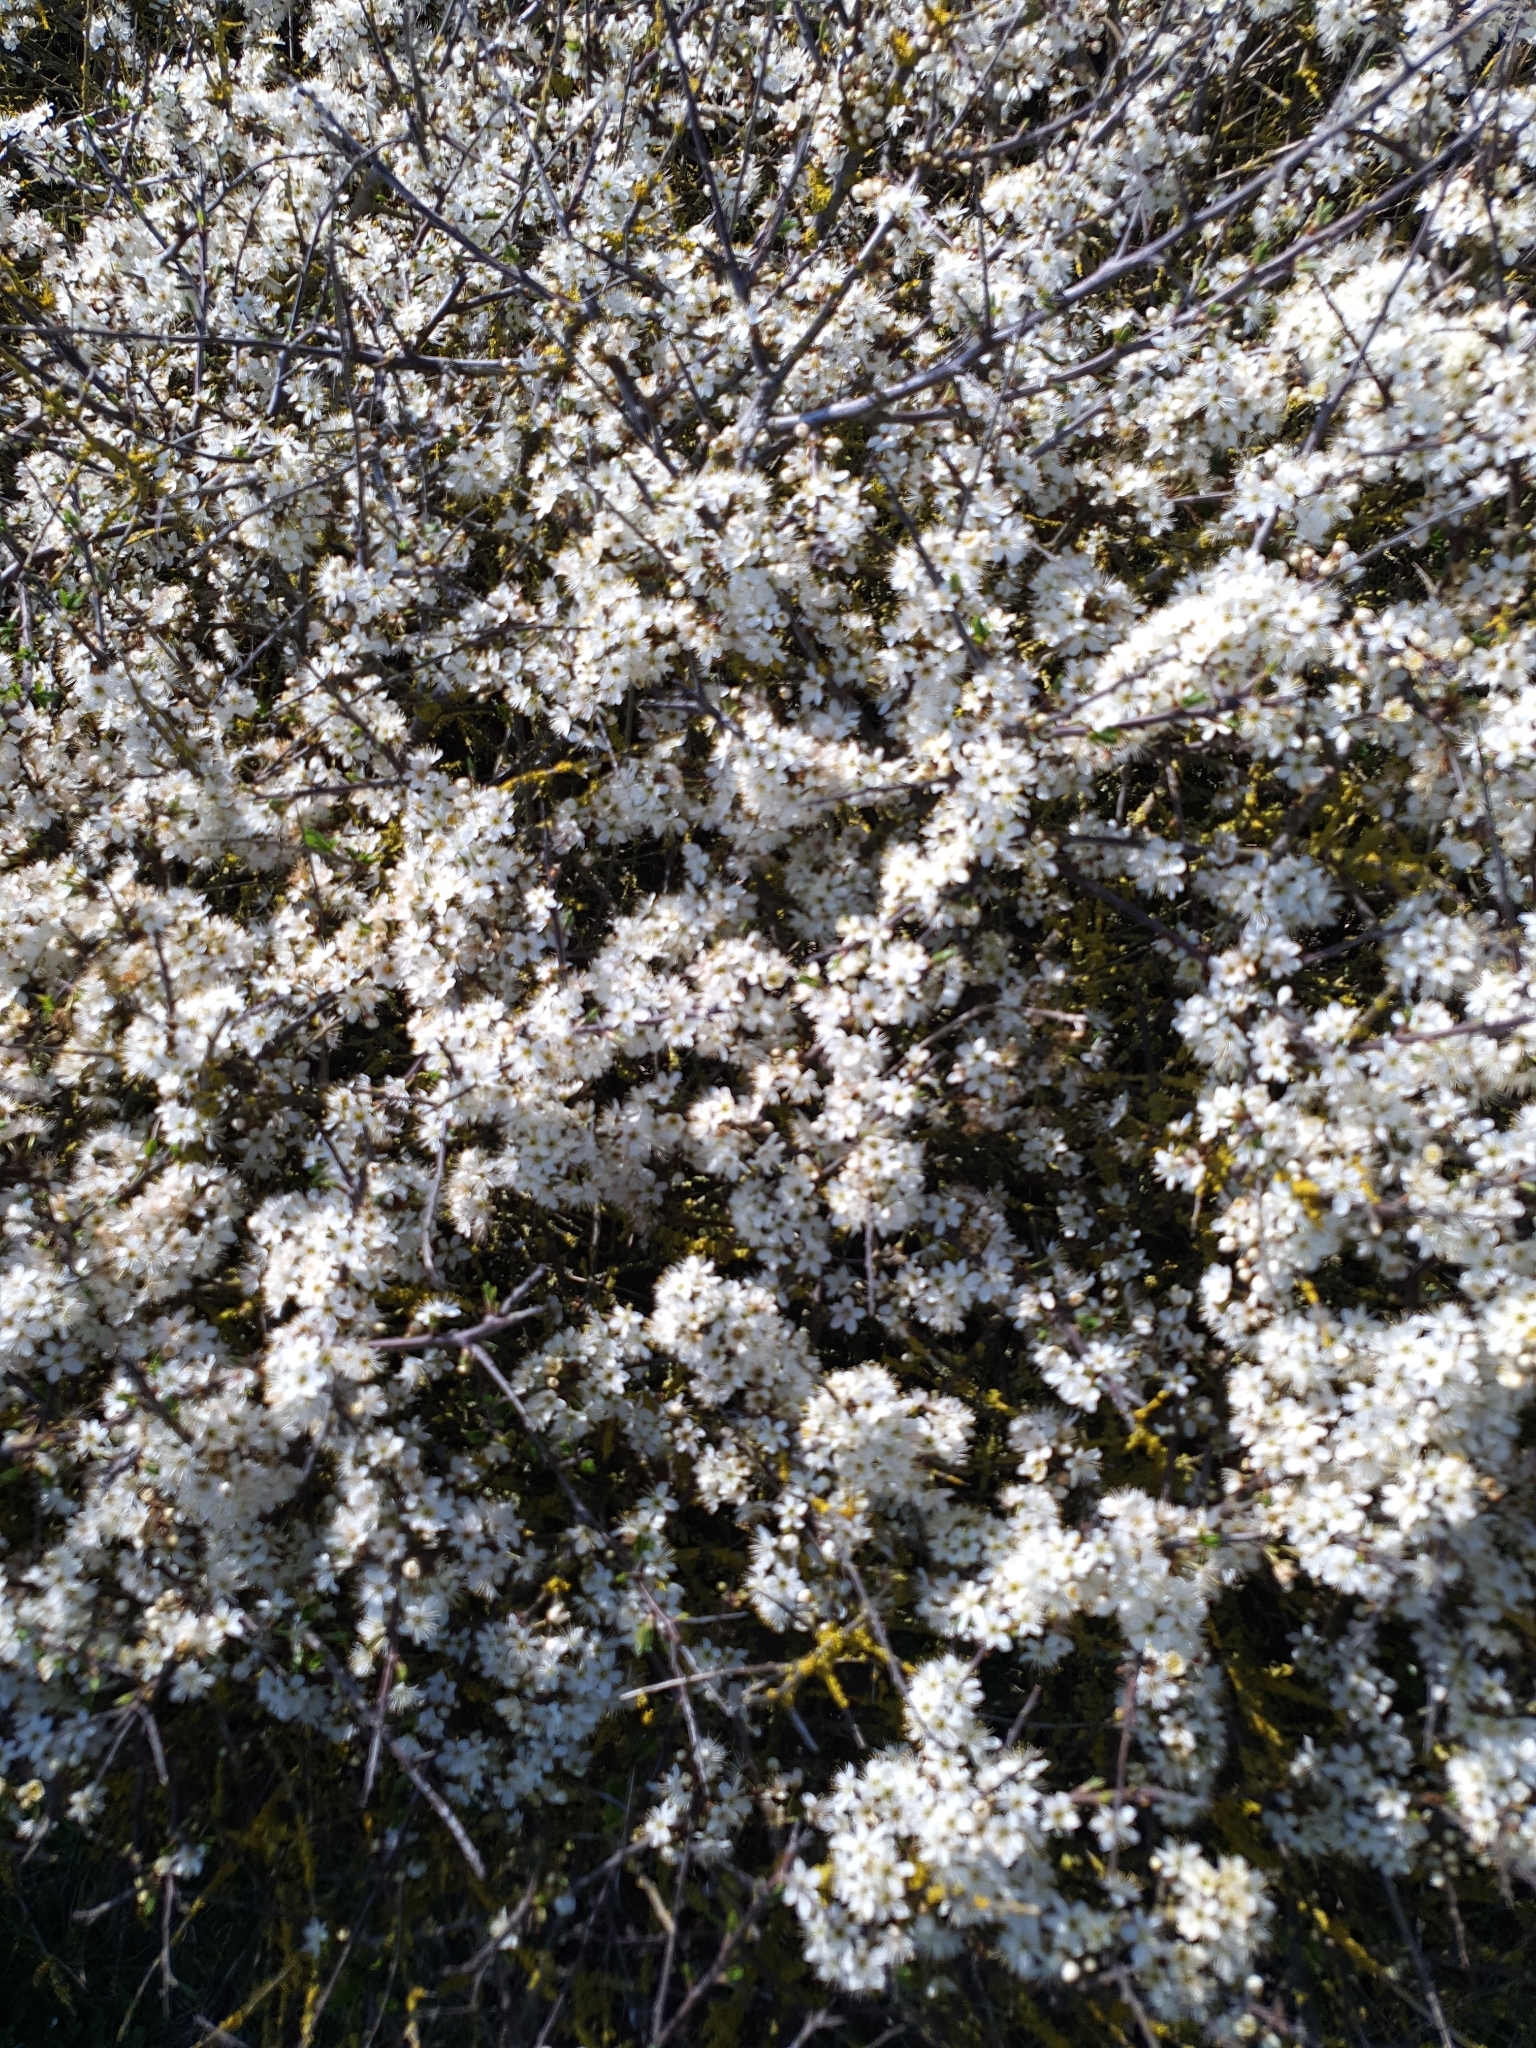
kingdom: Plantae
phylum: Tracheophyta
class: Magnoliopsida
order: Rosales
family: Rosaceae
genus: Prunus
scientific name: Prunus spinosa
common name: Blackthorn
